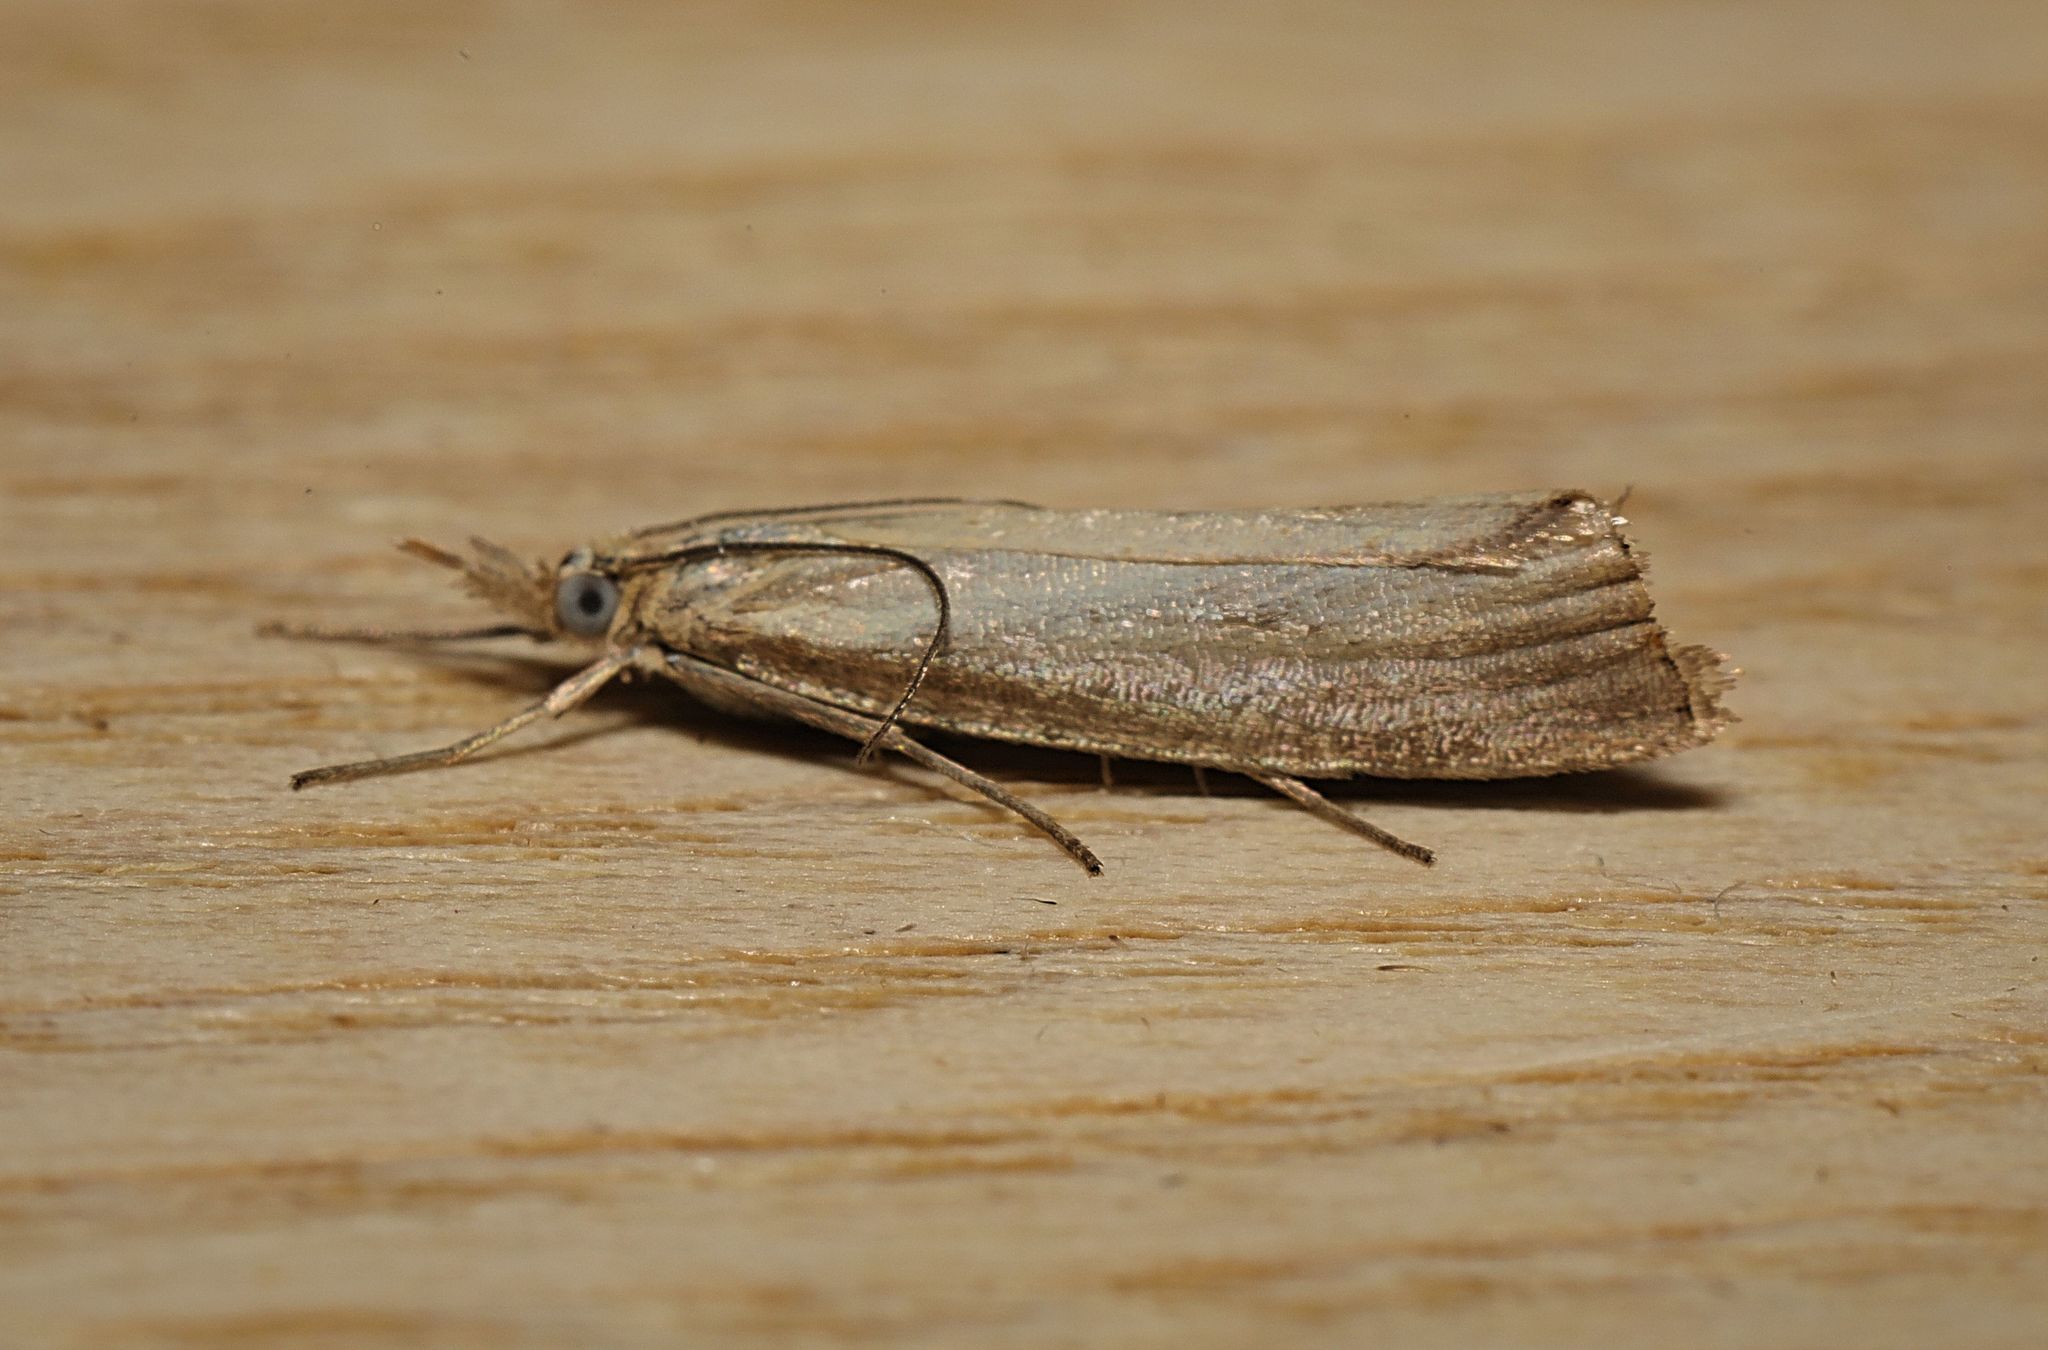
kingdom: Animalia
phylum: Arthropoda
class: Insecta
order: Lepidoptera
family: Crambidae
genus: Agriphila
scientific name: Agriphila straminella
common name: Straw grass-veneer
